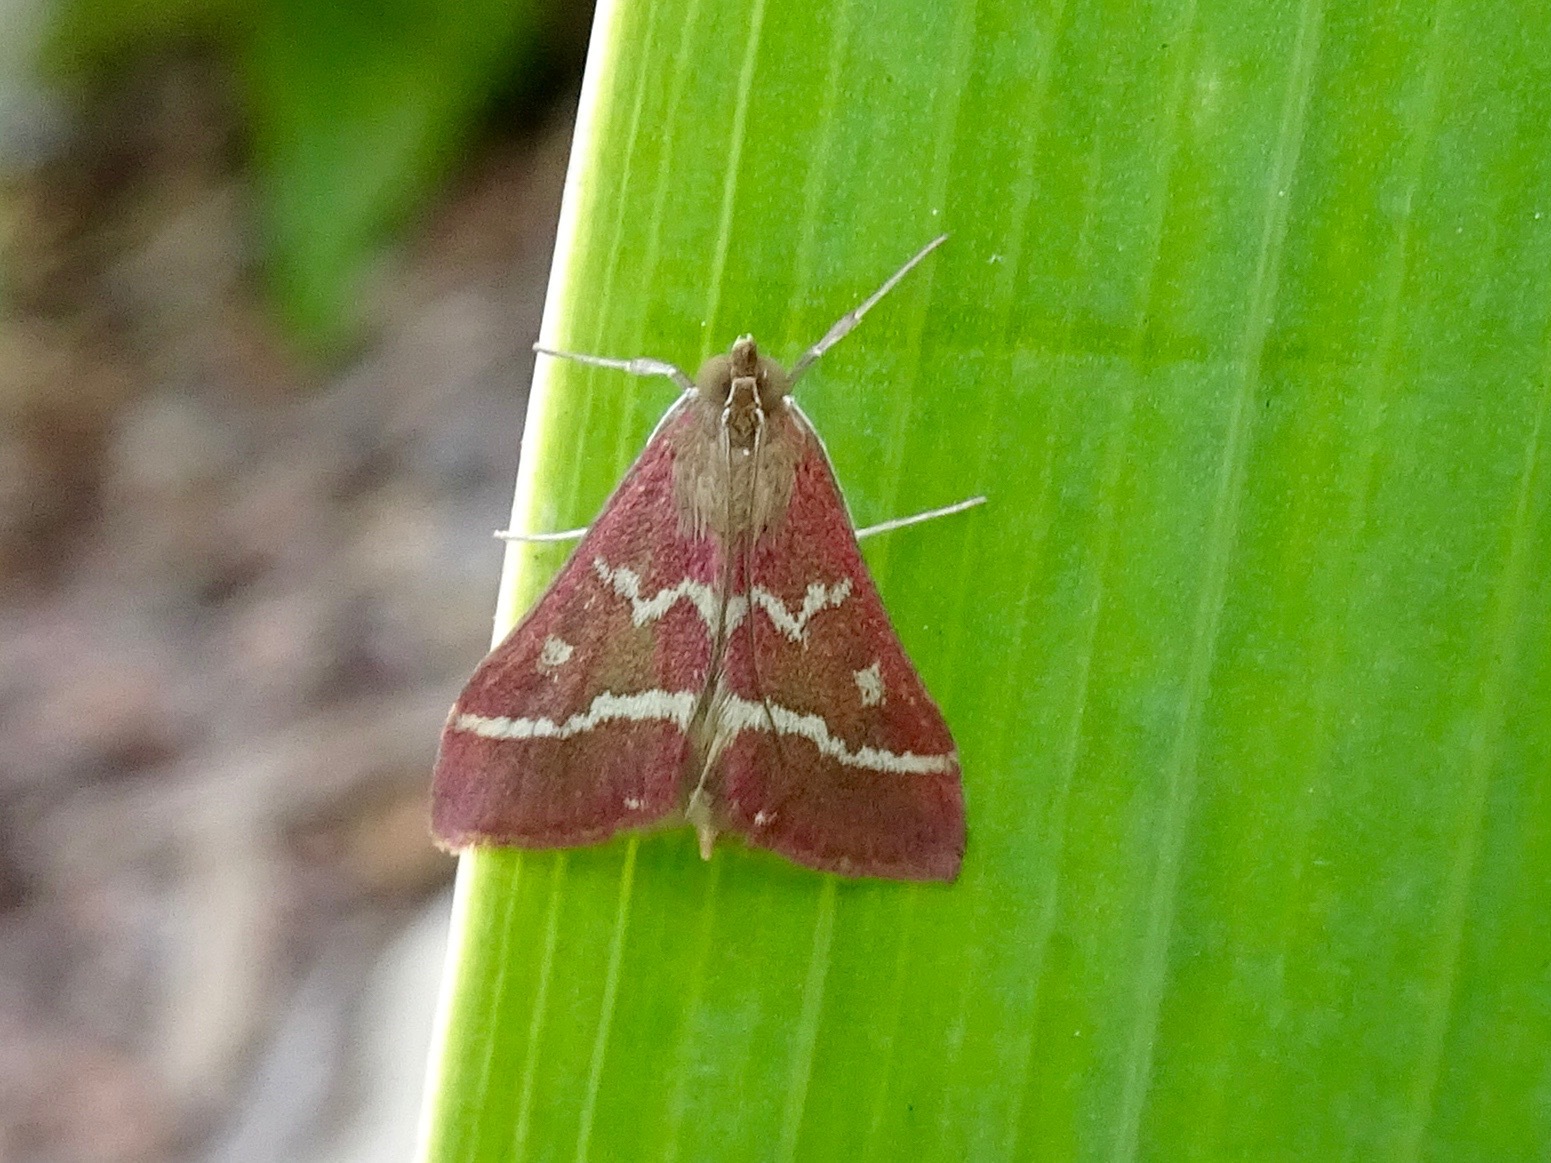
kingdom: Animalia
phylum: Arthropoda
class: Insecta
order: Lepidoptera
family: Crambidae
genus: Pyrausta
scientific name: Pyrausta volupialis
